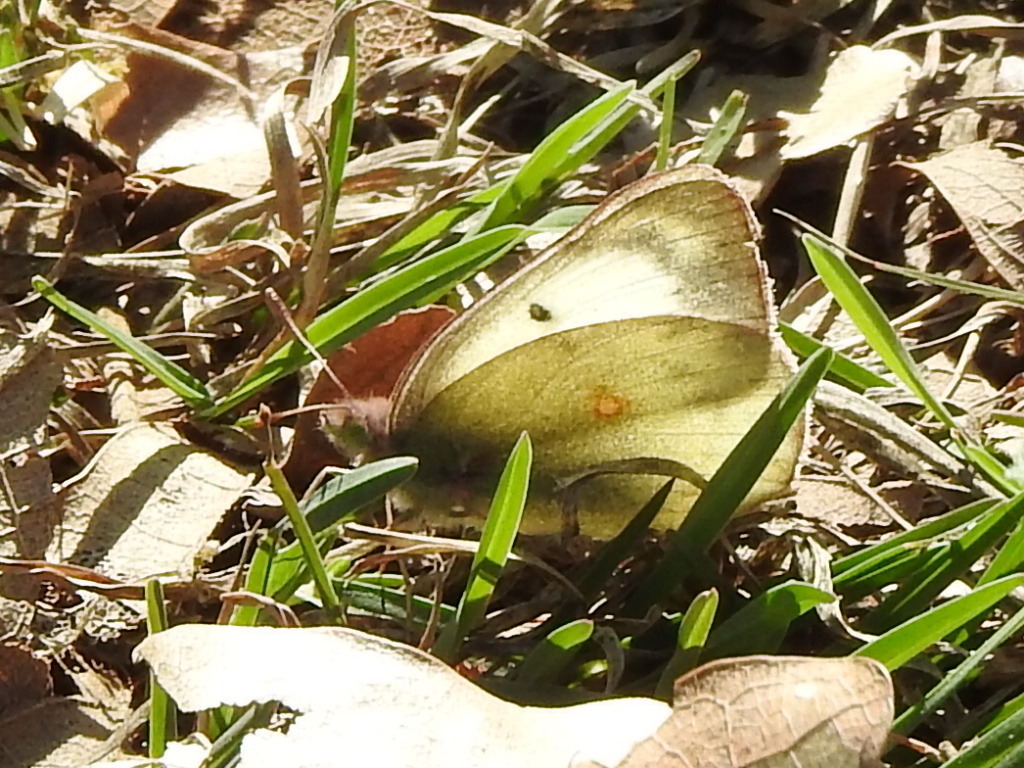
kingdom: Animalia
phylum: Arthropoda
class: Insecta
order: Lepidoptera
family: Pieridae
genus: Colias
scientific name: Colias eurytheme
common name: Alfalfa butterfly
